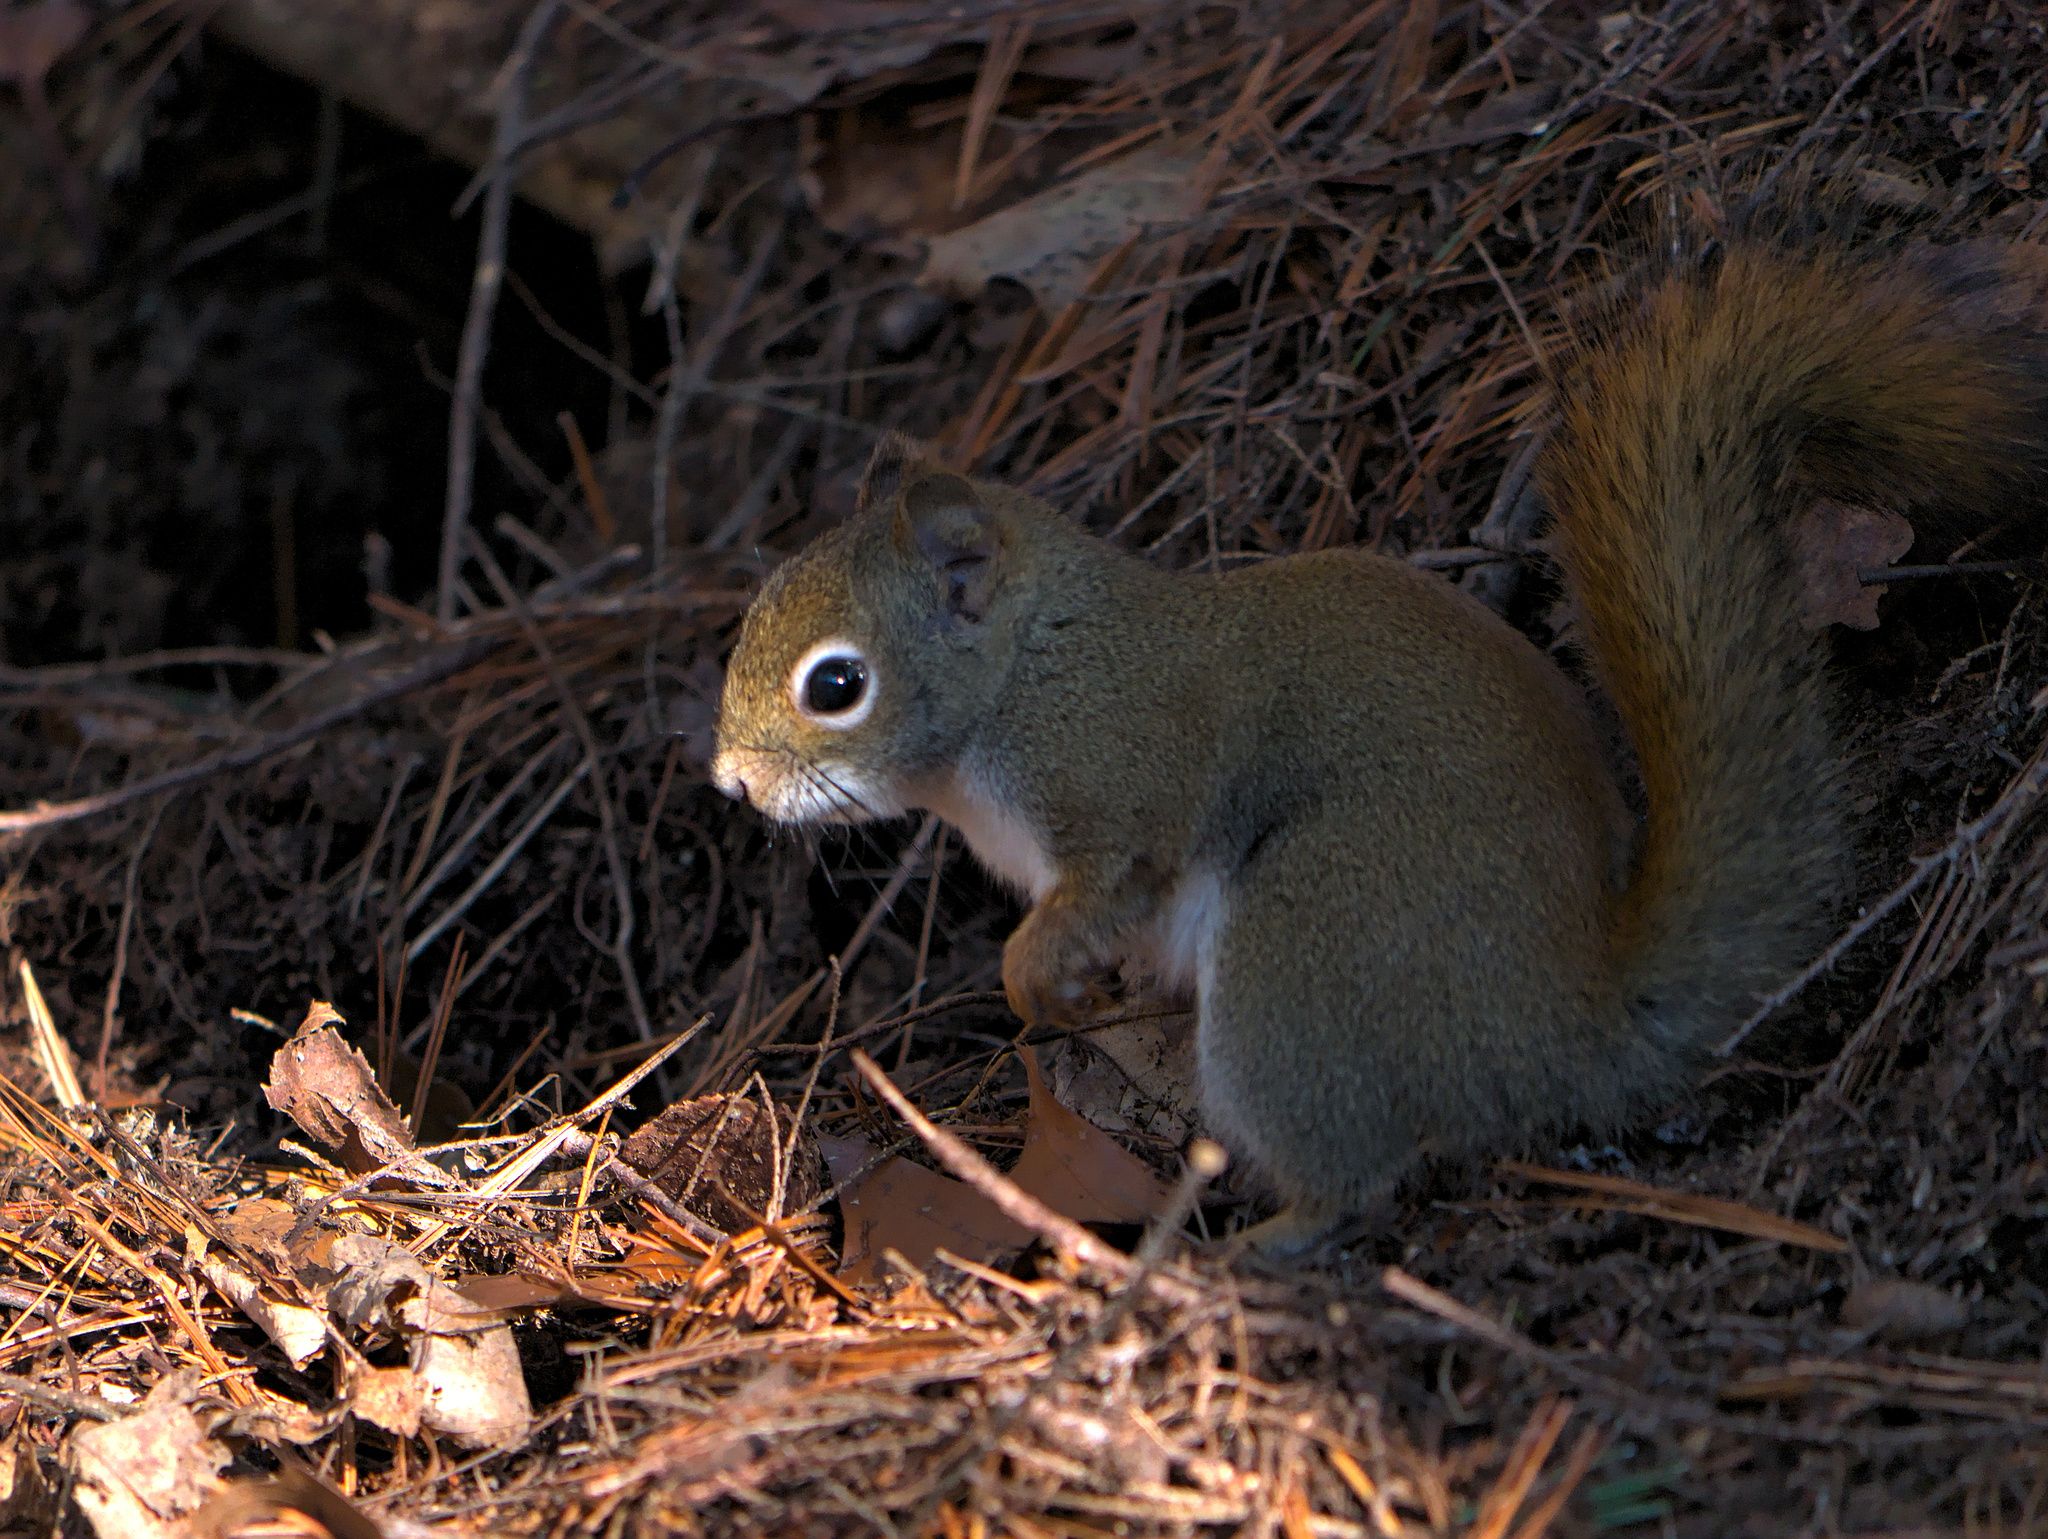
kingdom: Animalia
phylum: Chordata
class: Mammalia
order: Rodentia
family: Sciuridae
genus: Tamiasciurus
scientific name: Tamiasciurus hudsonicus
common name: Red squirrel
